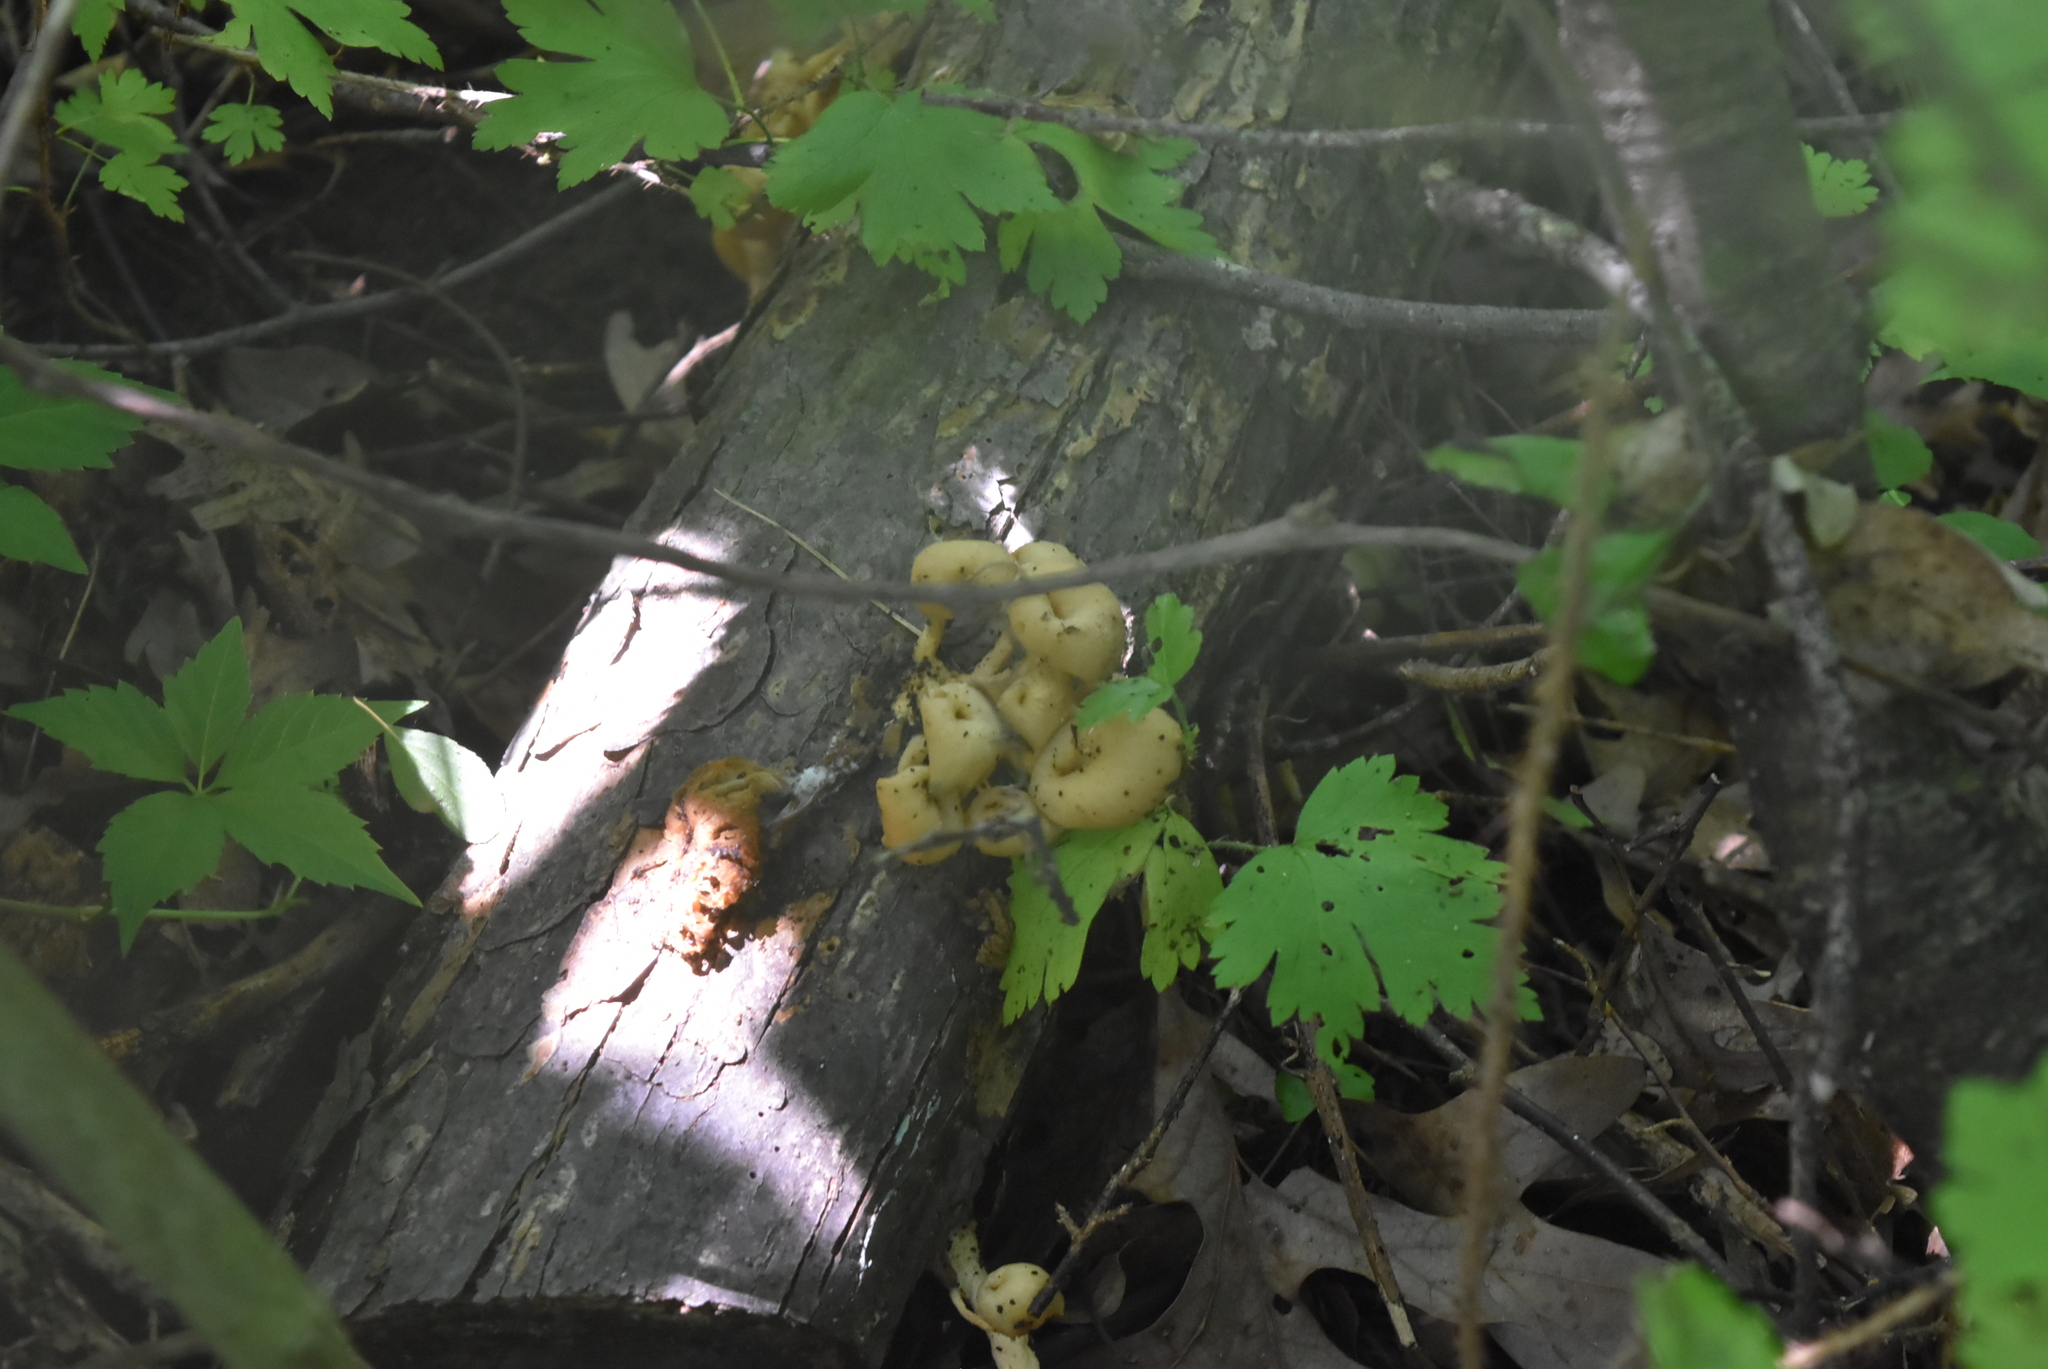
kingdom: Fungi
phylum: Basidiomycota
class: Agaricomycetes
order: Agaricales
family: Pleurotaceae
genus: Pleurotus
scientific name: Pleurotus citrinopileatus
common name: Golden oyster mushroom
